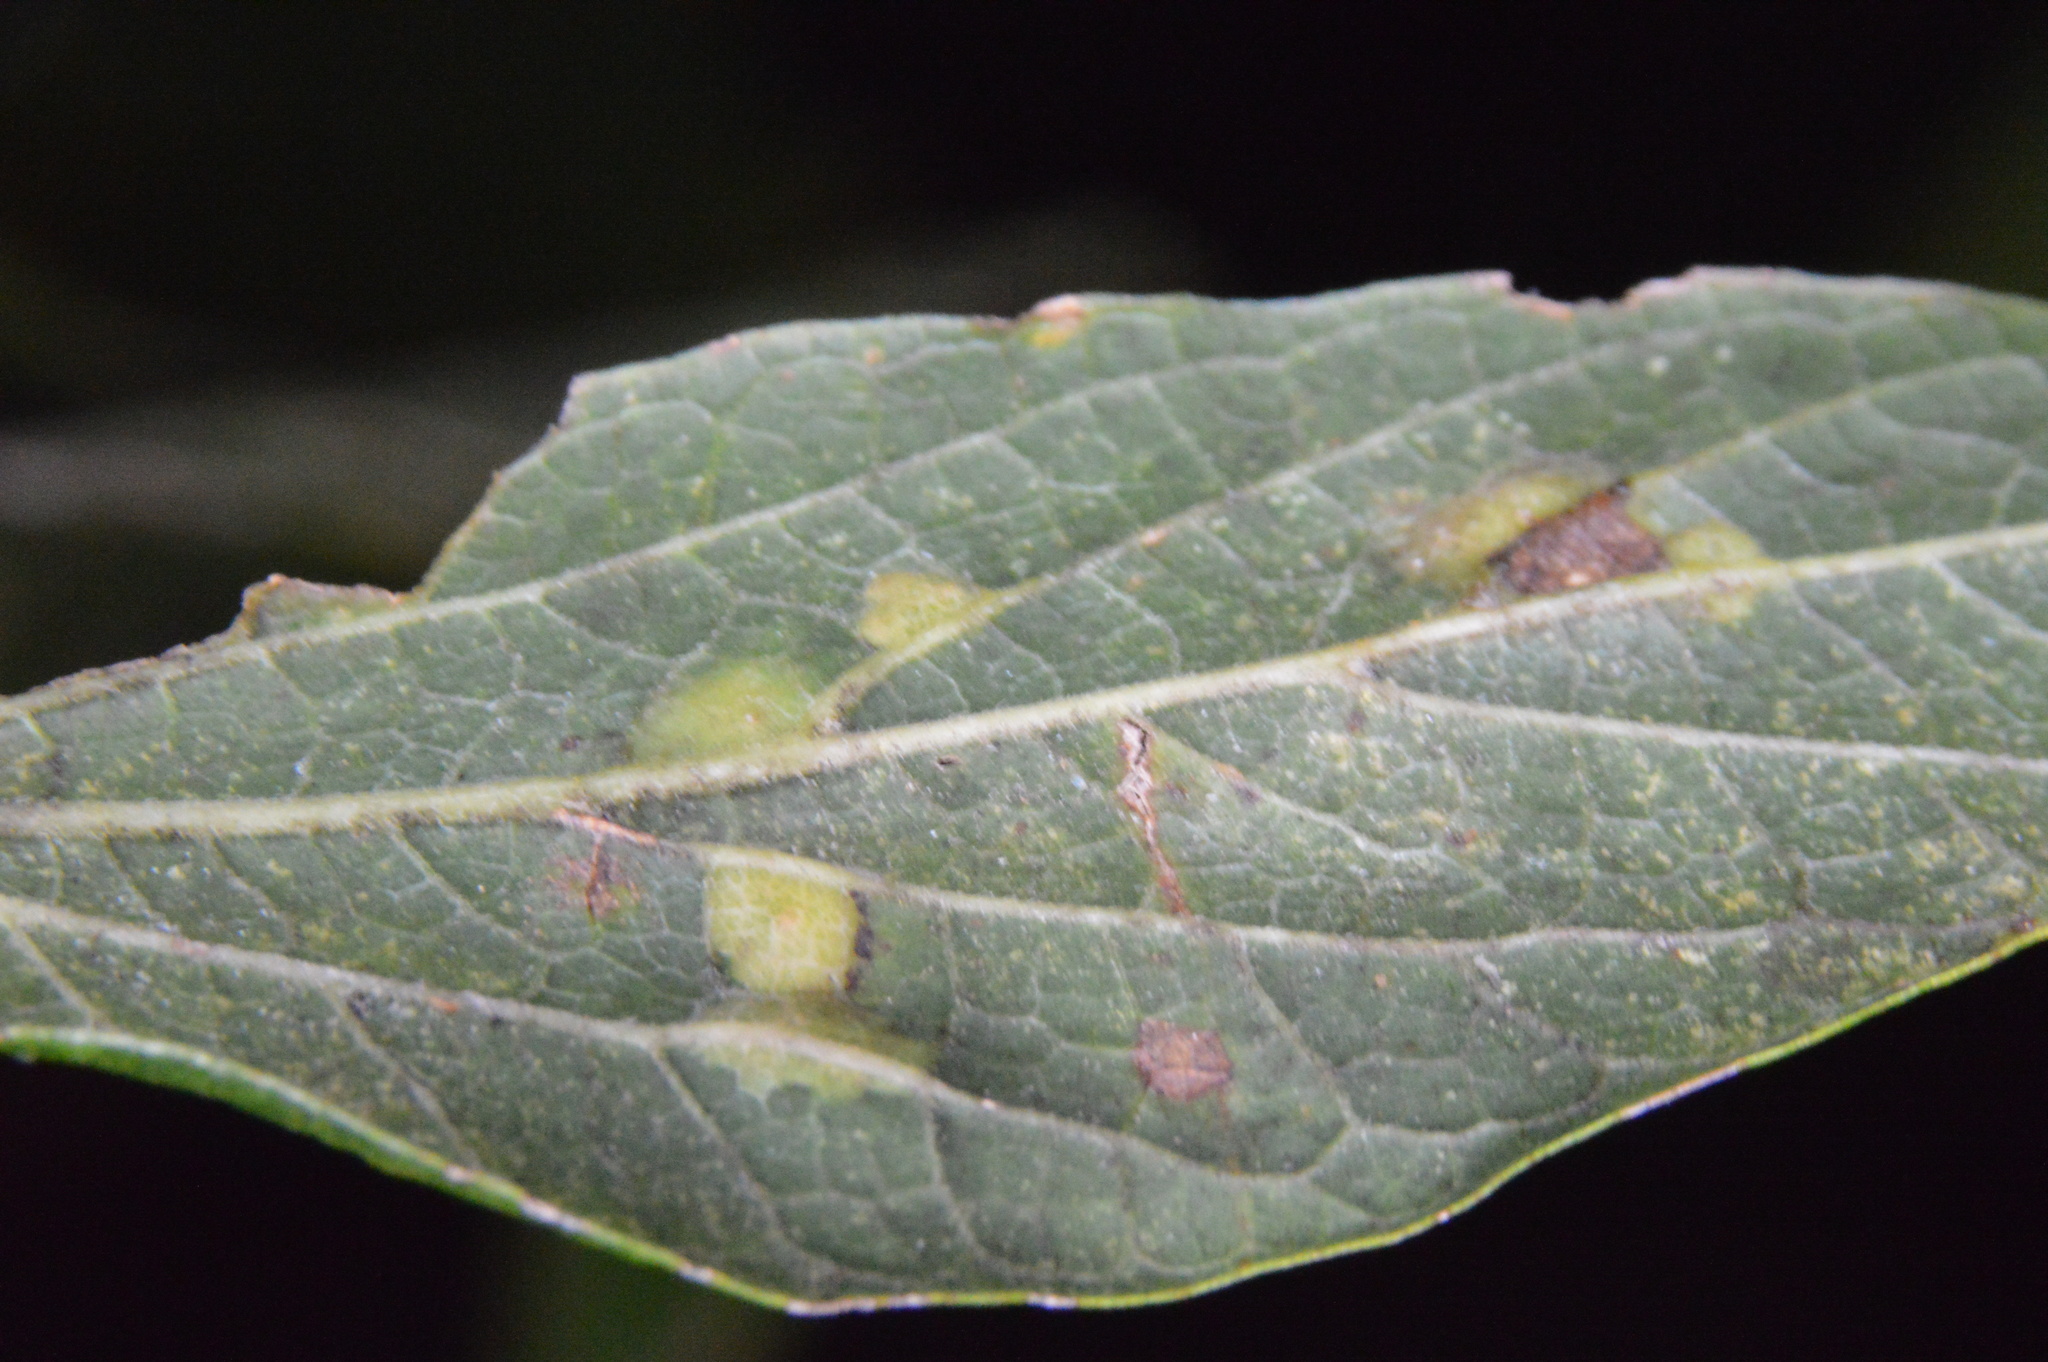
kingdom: Animalia
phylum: Arthropoda
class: Insecta
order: Hemiptera
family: Aphalaridae
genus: Pachypsylla
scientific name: Pachypsylla celtidisvesicula
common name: Hackberry blister gall psyllid
